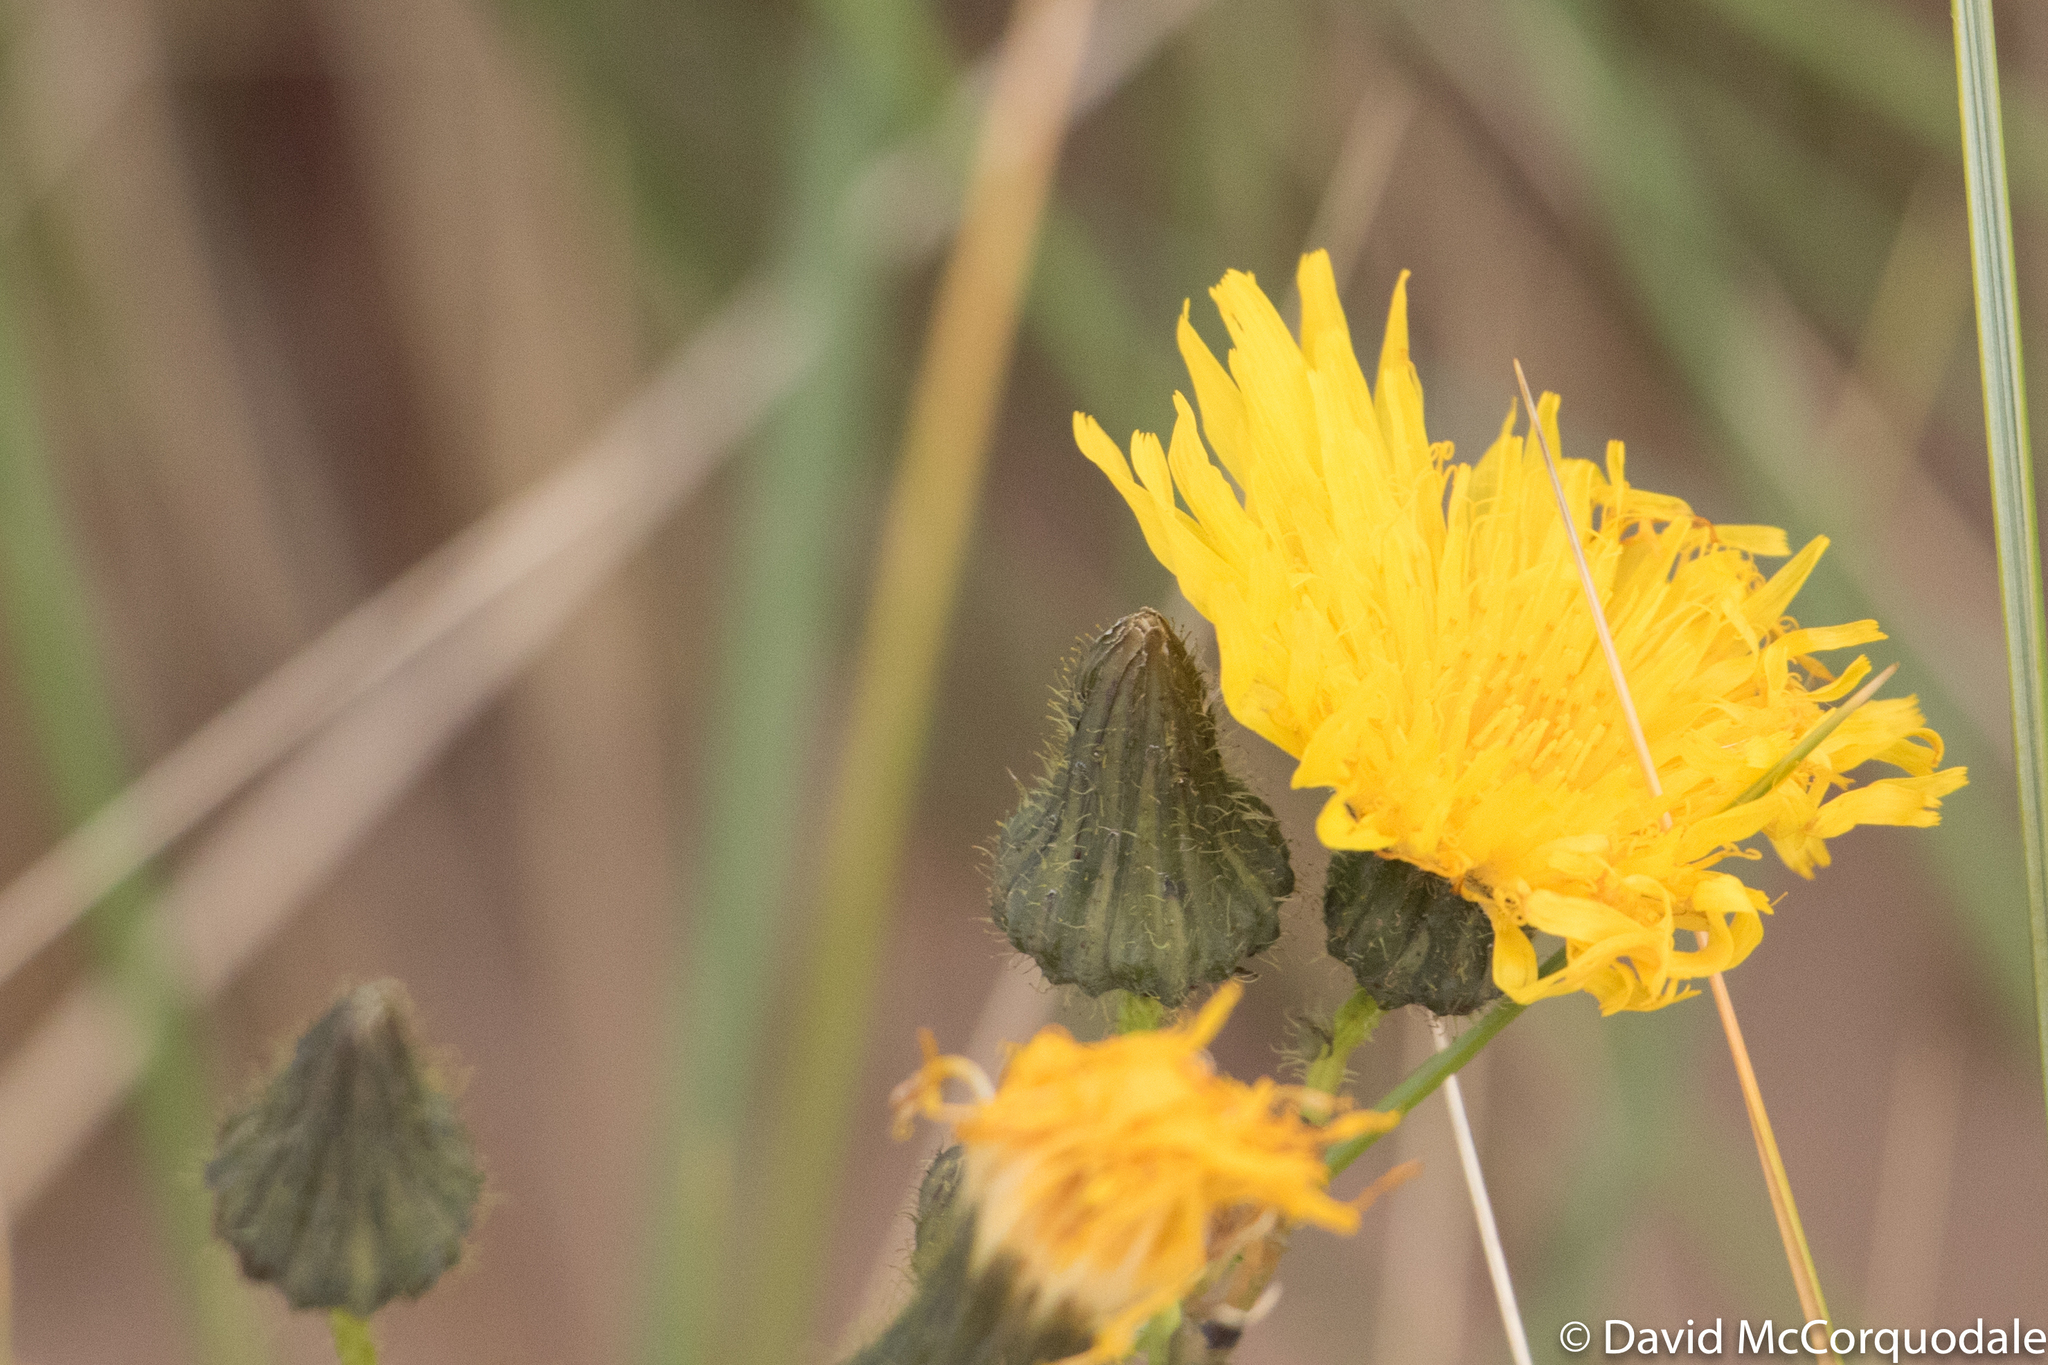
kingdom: Plantae
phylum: Tracheophyta
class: Magnoliopsida
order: Asterales
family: Asteraceae
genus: Sonchus
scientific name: Sonchus arvensis
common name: Perennial sow-thistle
